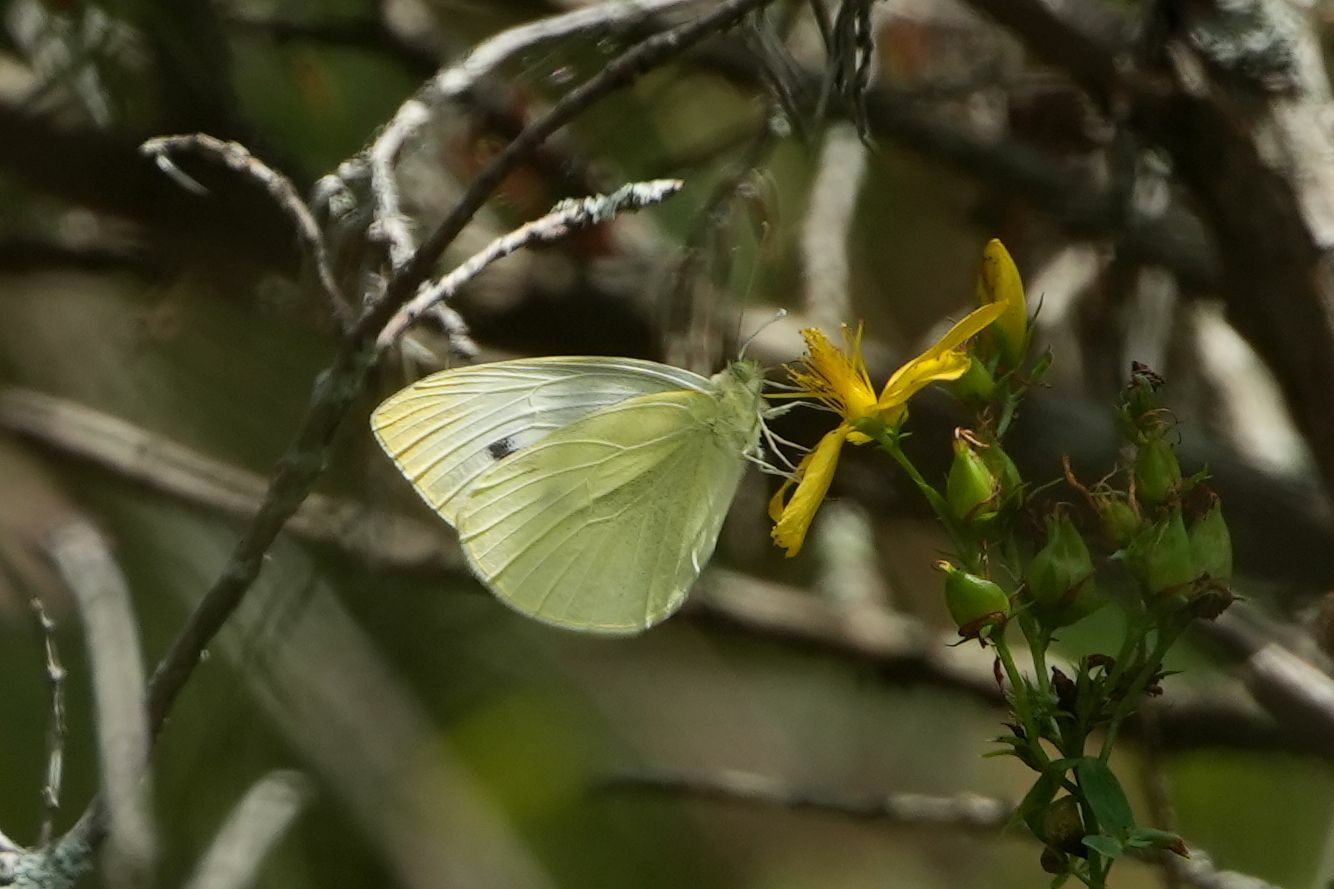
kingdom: Animalia
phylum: Arthropoda
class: Insecta
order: Lepidoptera
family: Pieridae
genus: Pieris
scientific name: Pieris rapae
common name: Small white
